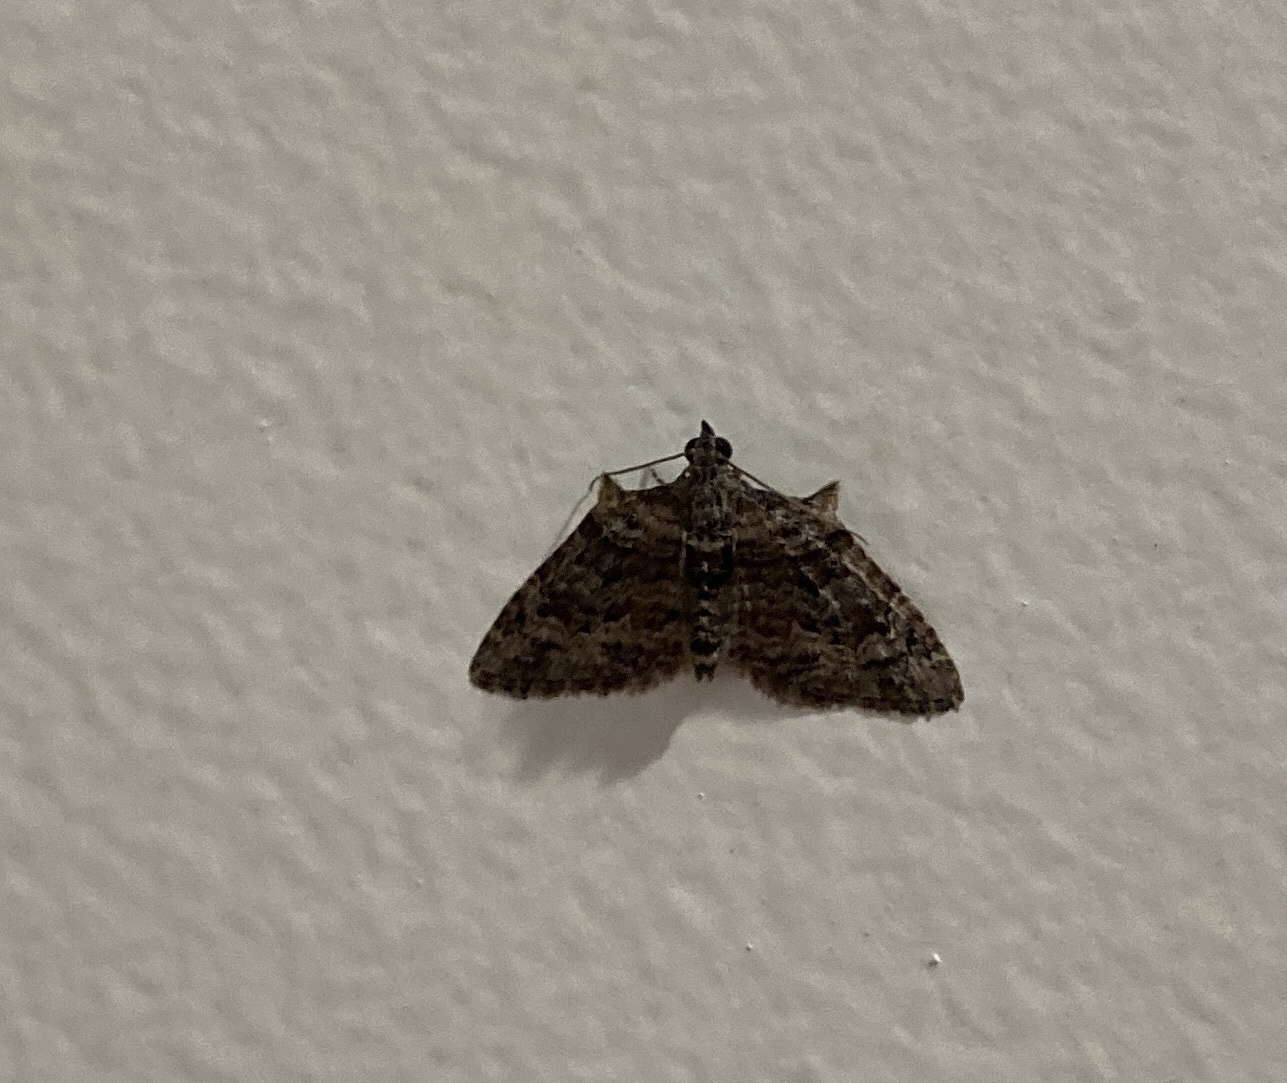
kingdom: Animalia
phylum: Arthropoda
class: Insecta
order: Lepidoptera
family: Geometridae
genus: Phrissogonus
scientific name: Phrissogonus laticostata
